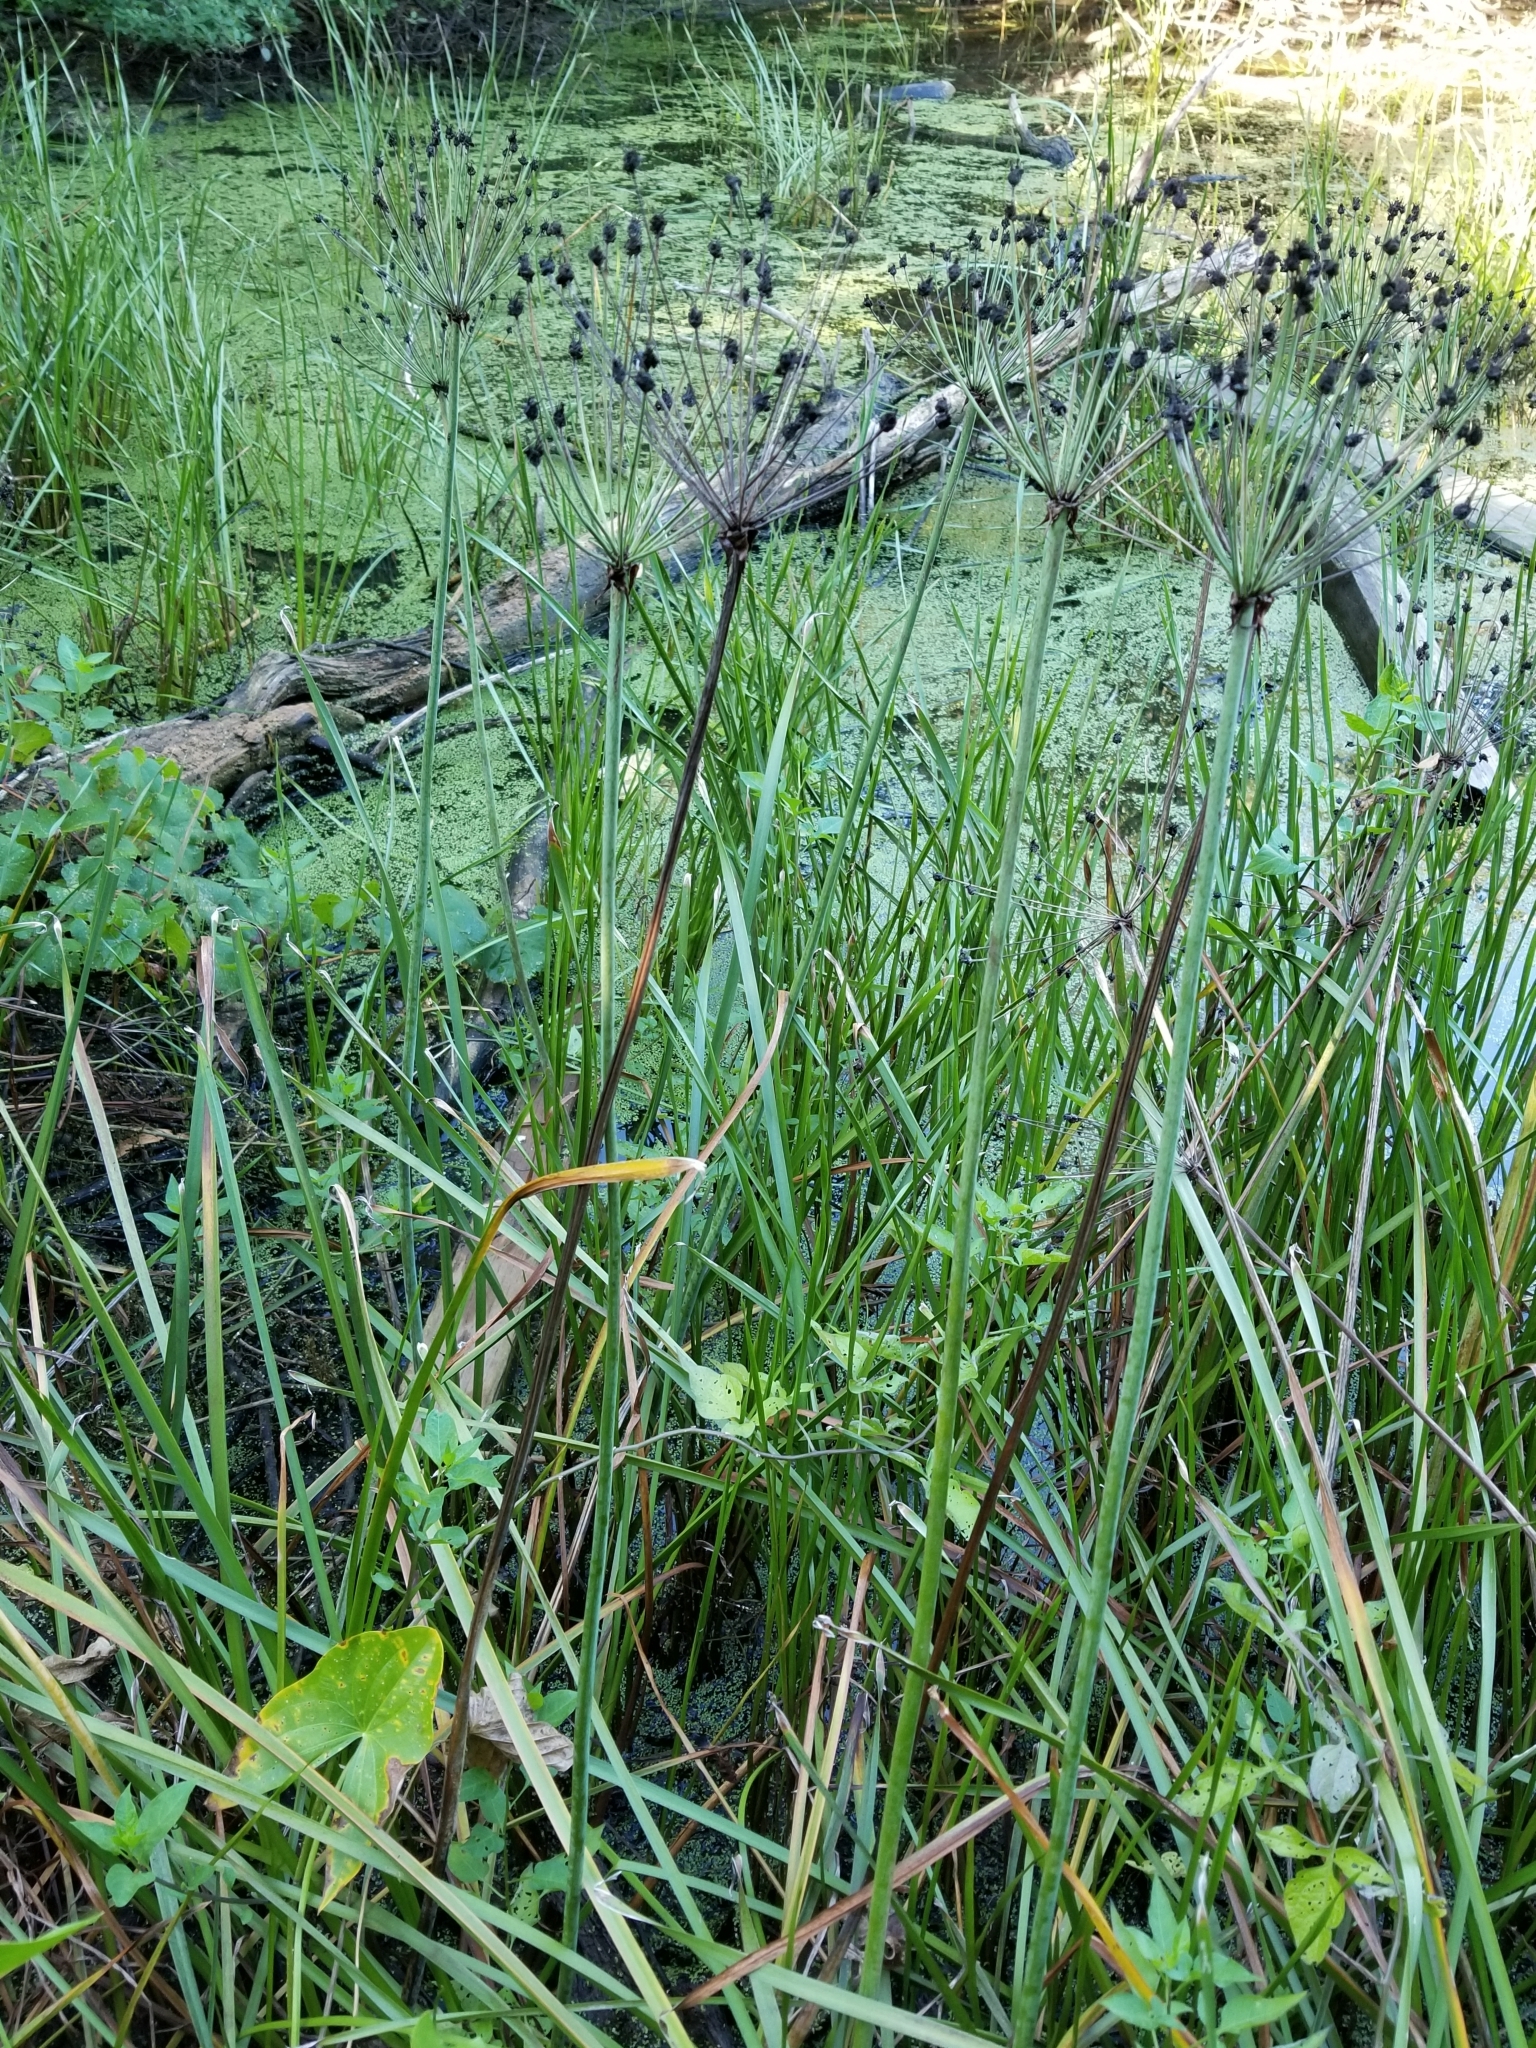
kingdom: Plantae
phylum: Tracheophyta
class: Liliopsida
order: Alismatales
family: Butomaceae
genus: Butomus
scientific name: Butomus umbellatus
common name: Flowering-rush
